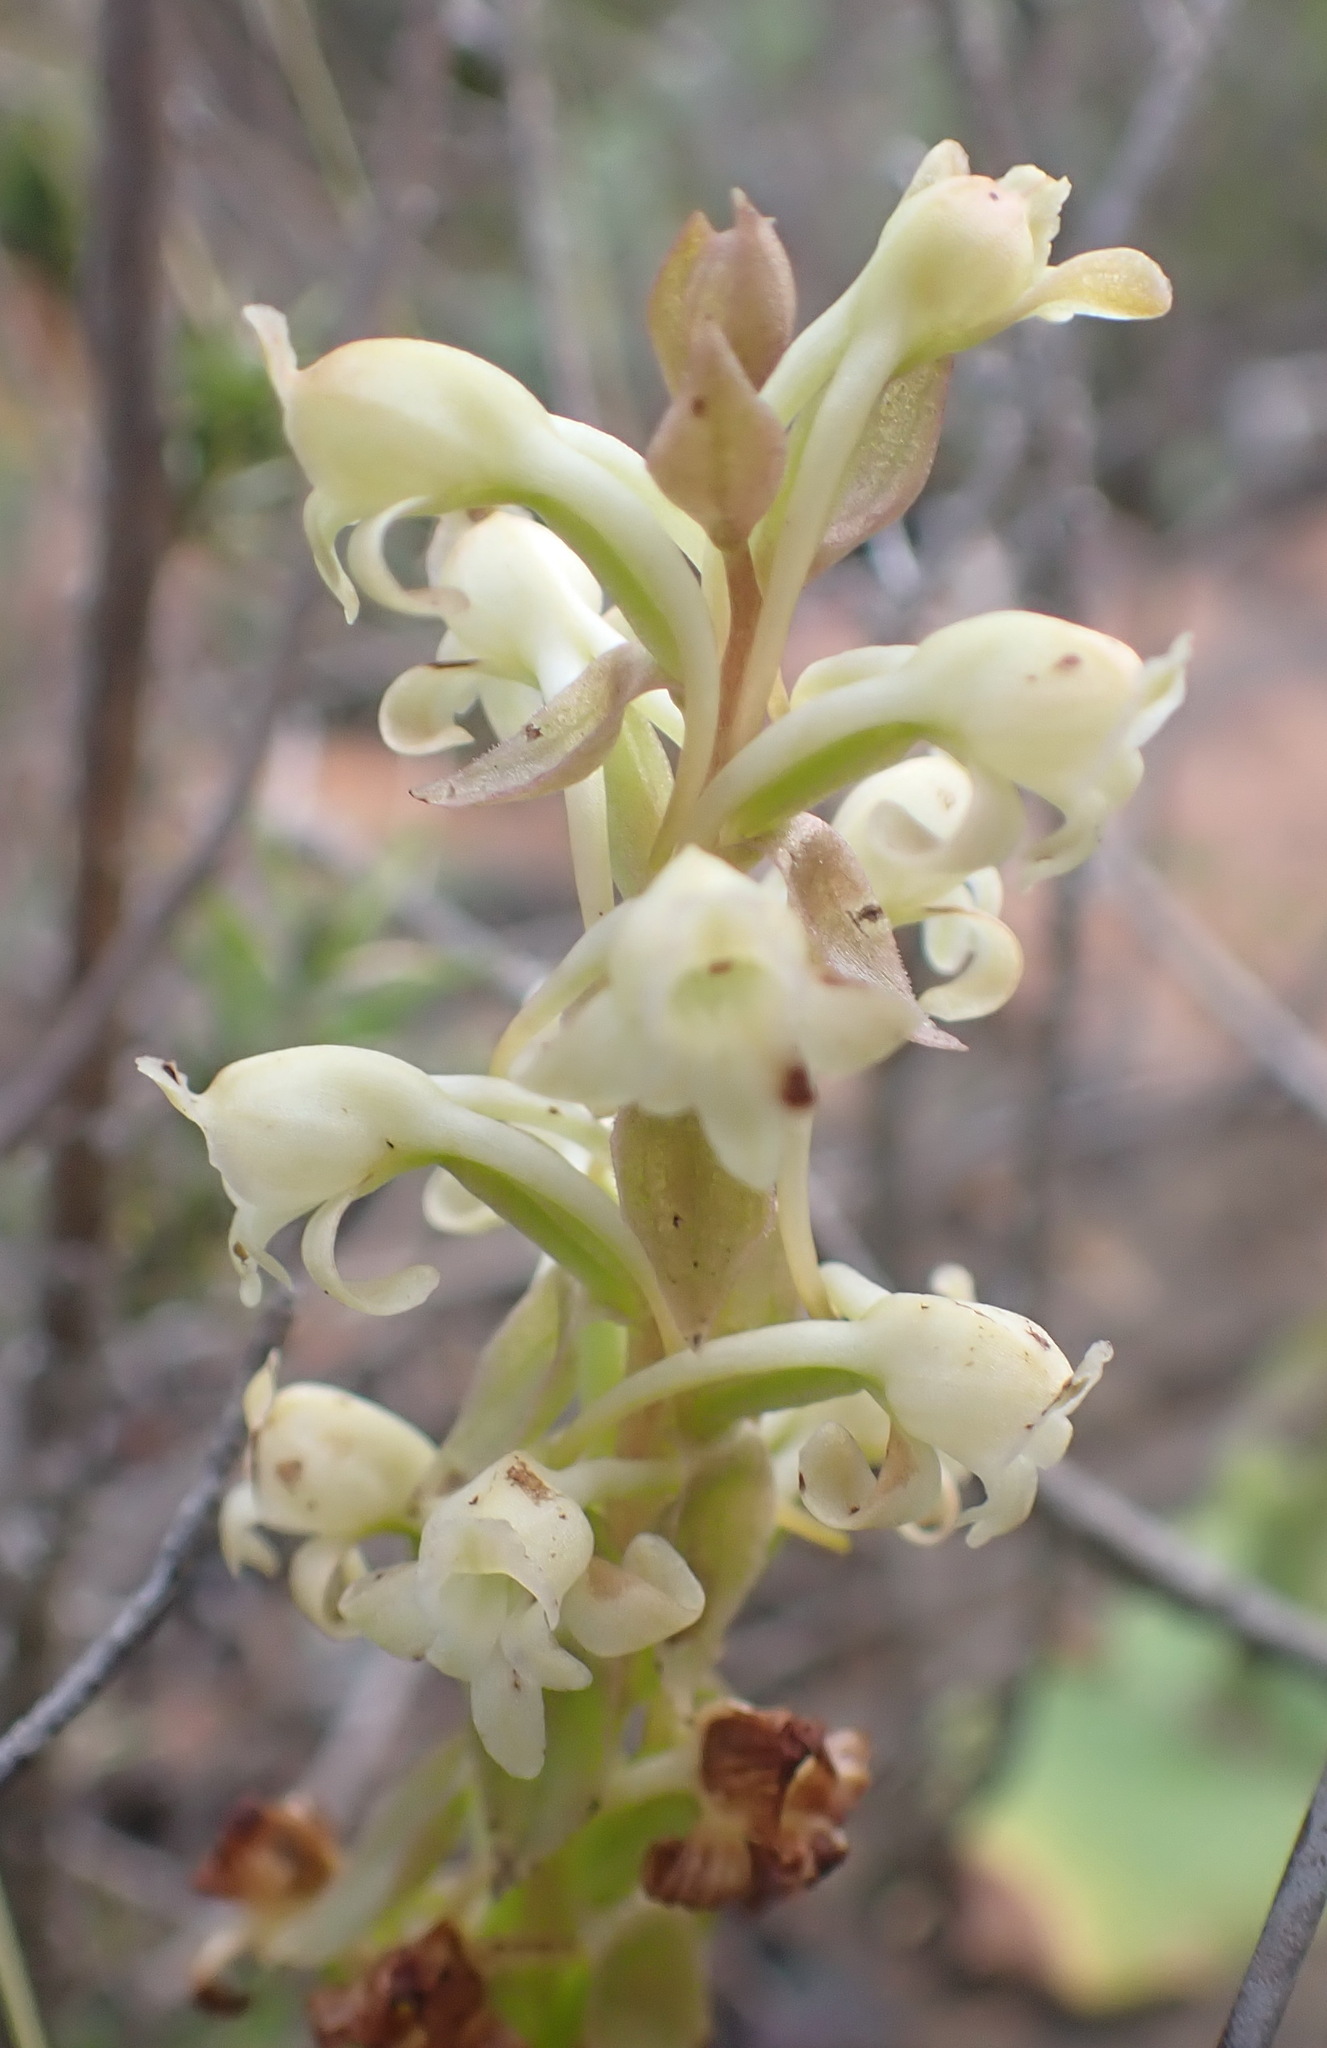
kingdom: Plantae
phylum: Tracheophyta
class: Liliopsida
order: Asparagales
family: Orchidaceae
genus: Satyrium
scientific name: Satyrium humile
